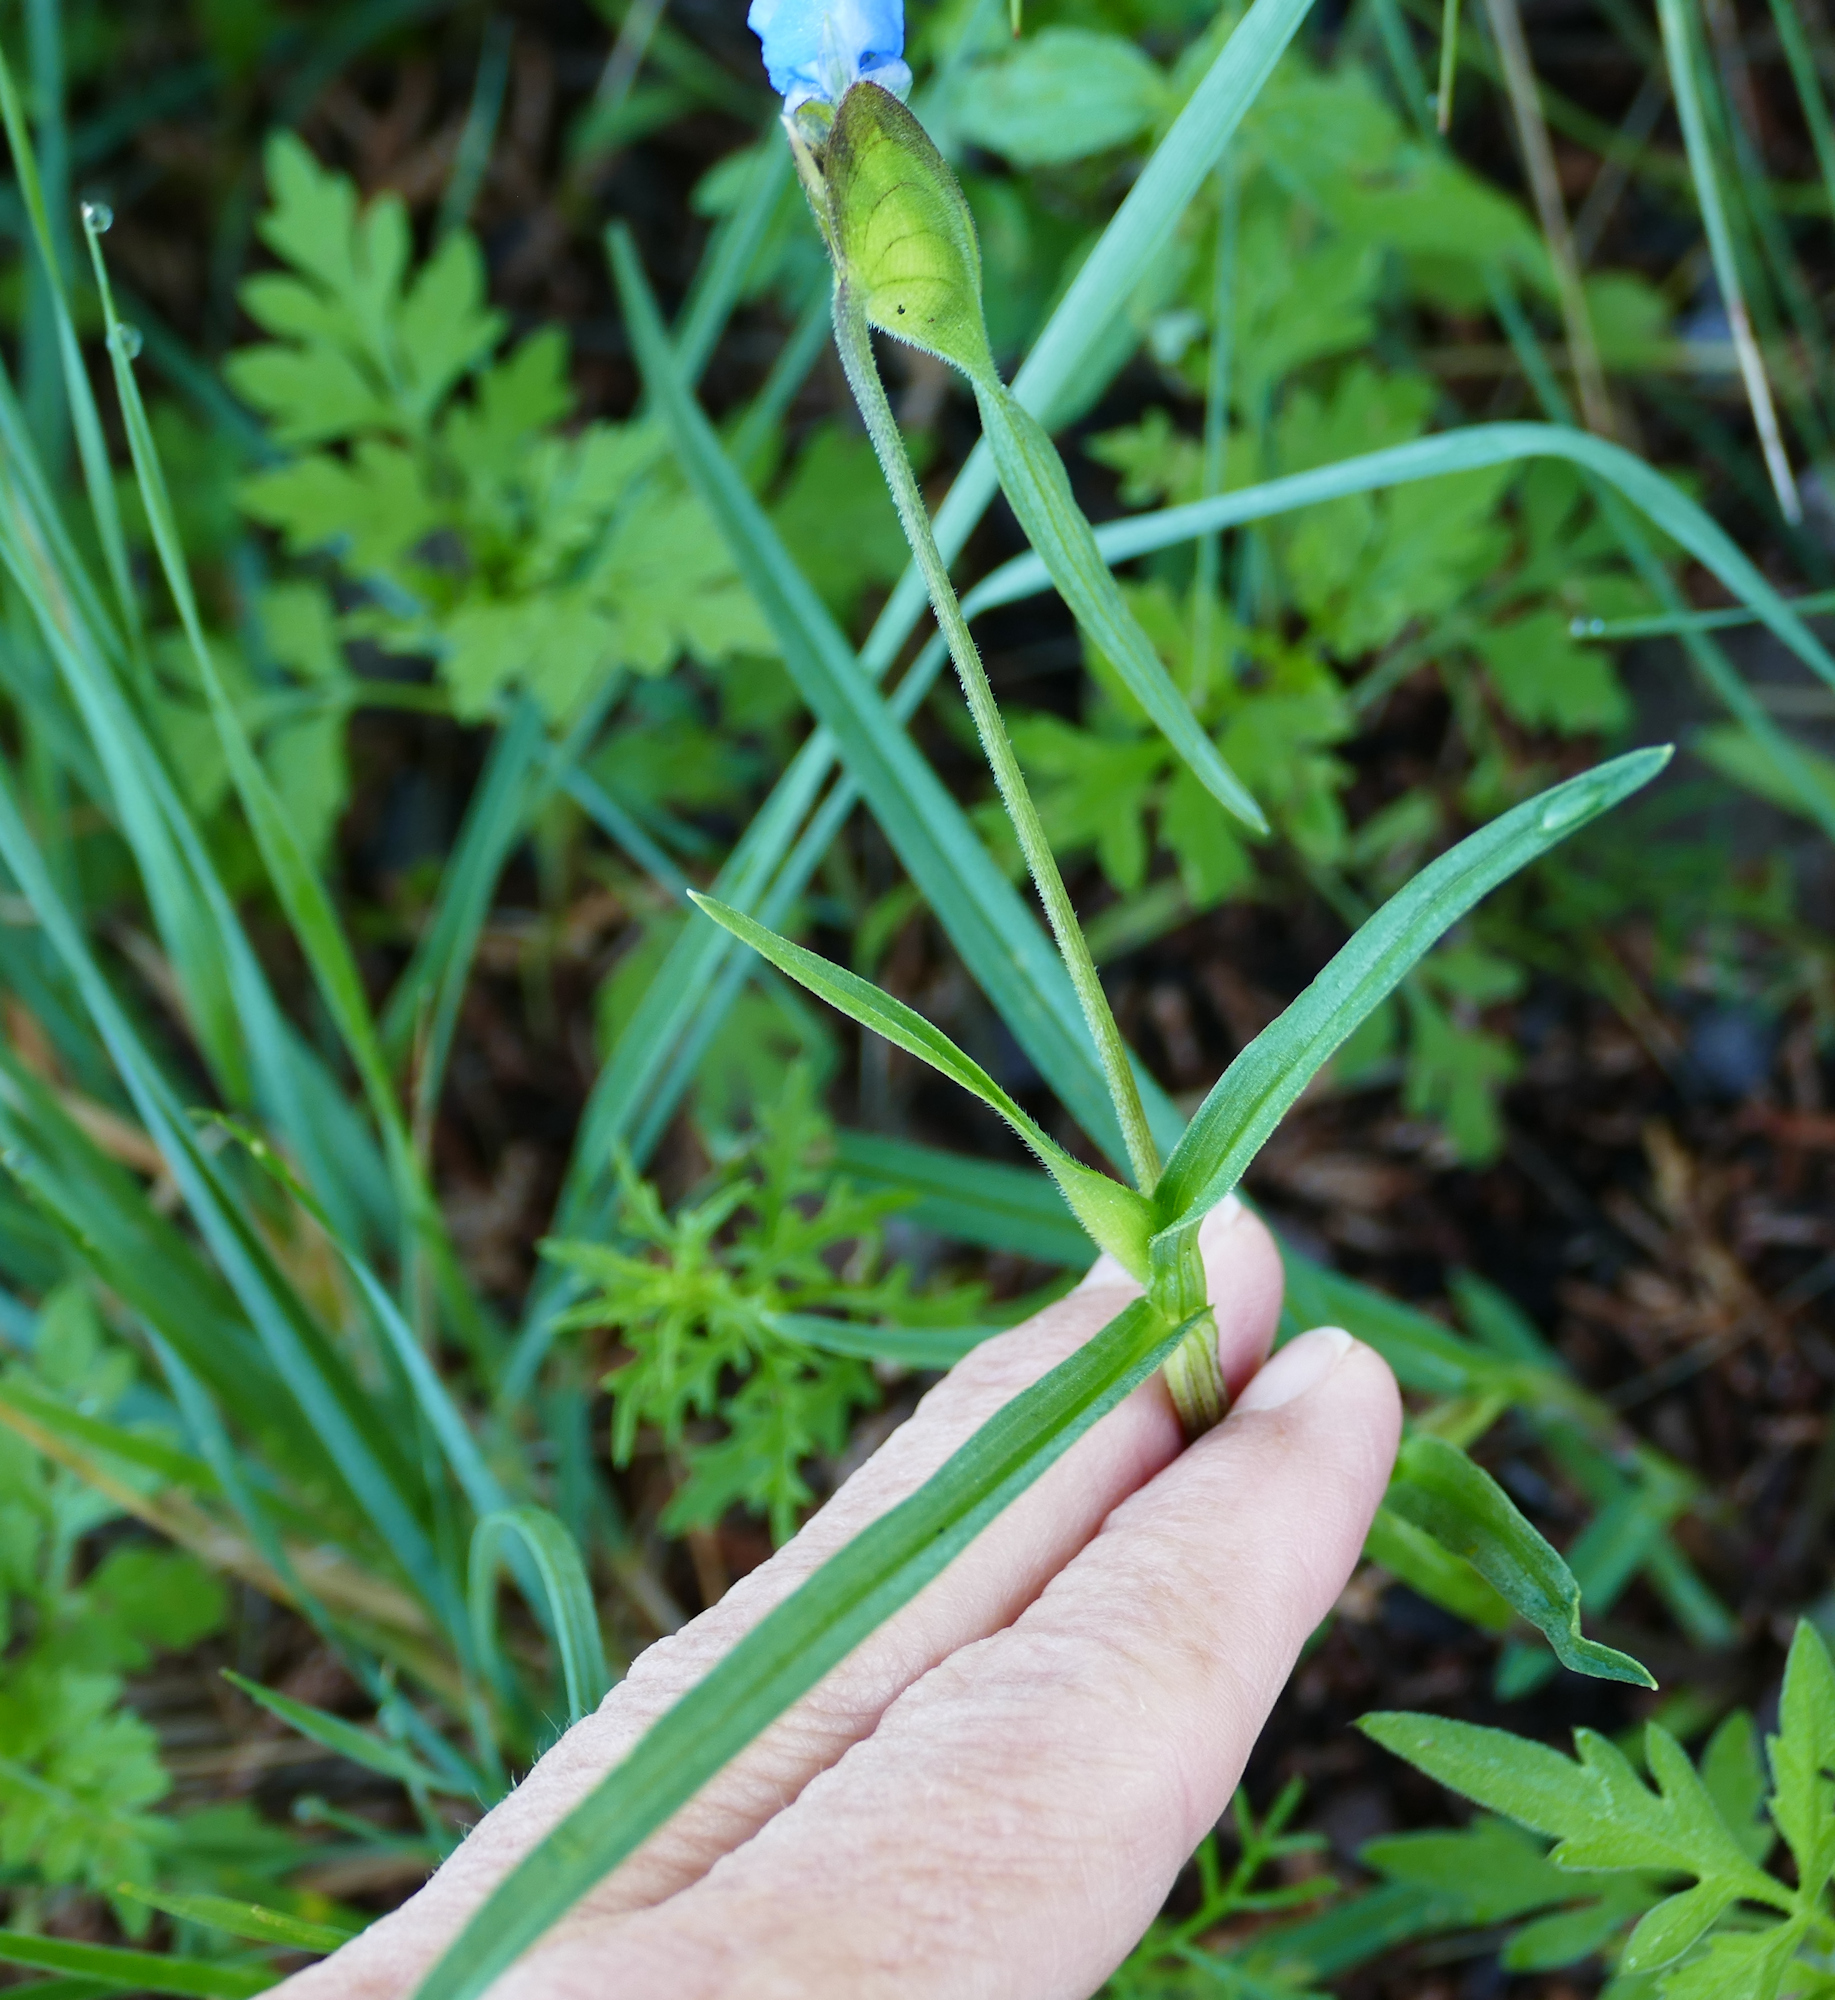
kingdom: Plantae
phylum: Tracheophyta
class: Liliopsida
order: Commelinales
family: Commelinaceae
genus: Commelina
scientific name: Commelina dianthifolia
